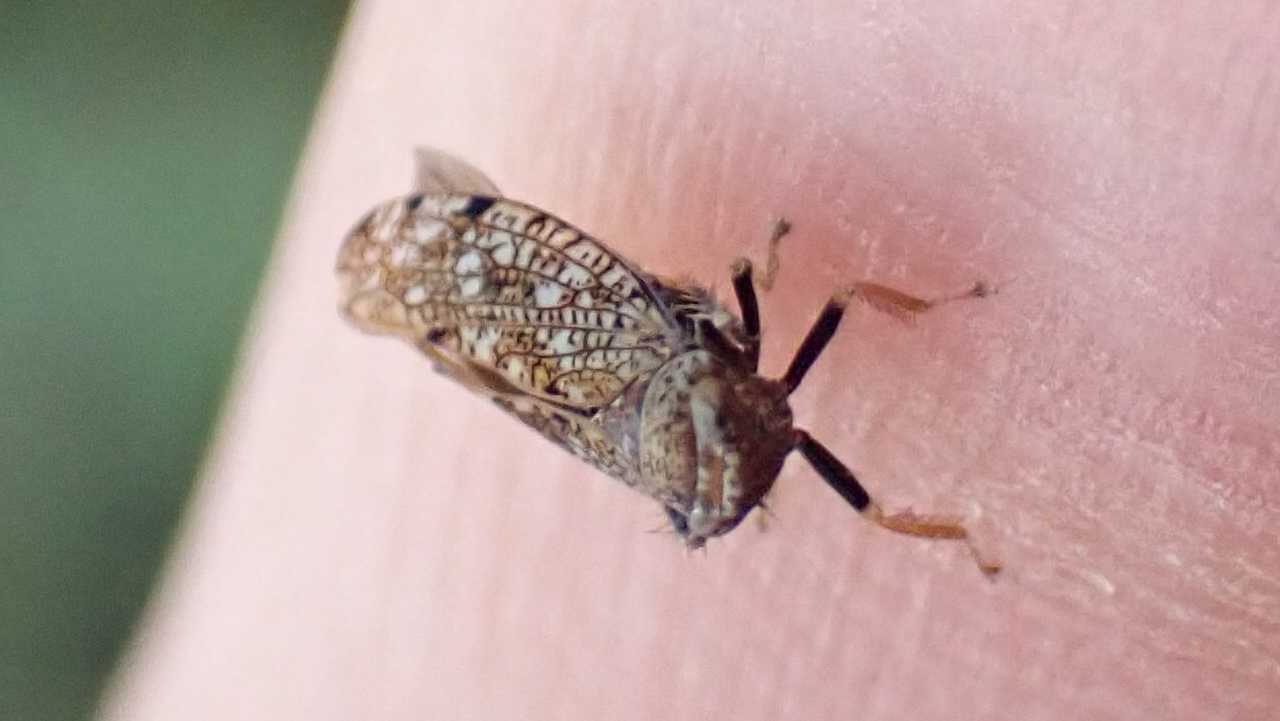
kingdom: Animalia
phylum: Arthropoda
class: Insecta
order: Hemiptera
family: Cicadellidae
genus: Orientus
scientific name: Orientus ishidae
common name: Japanese leafhopper
